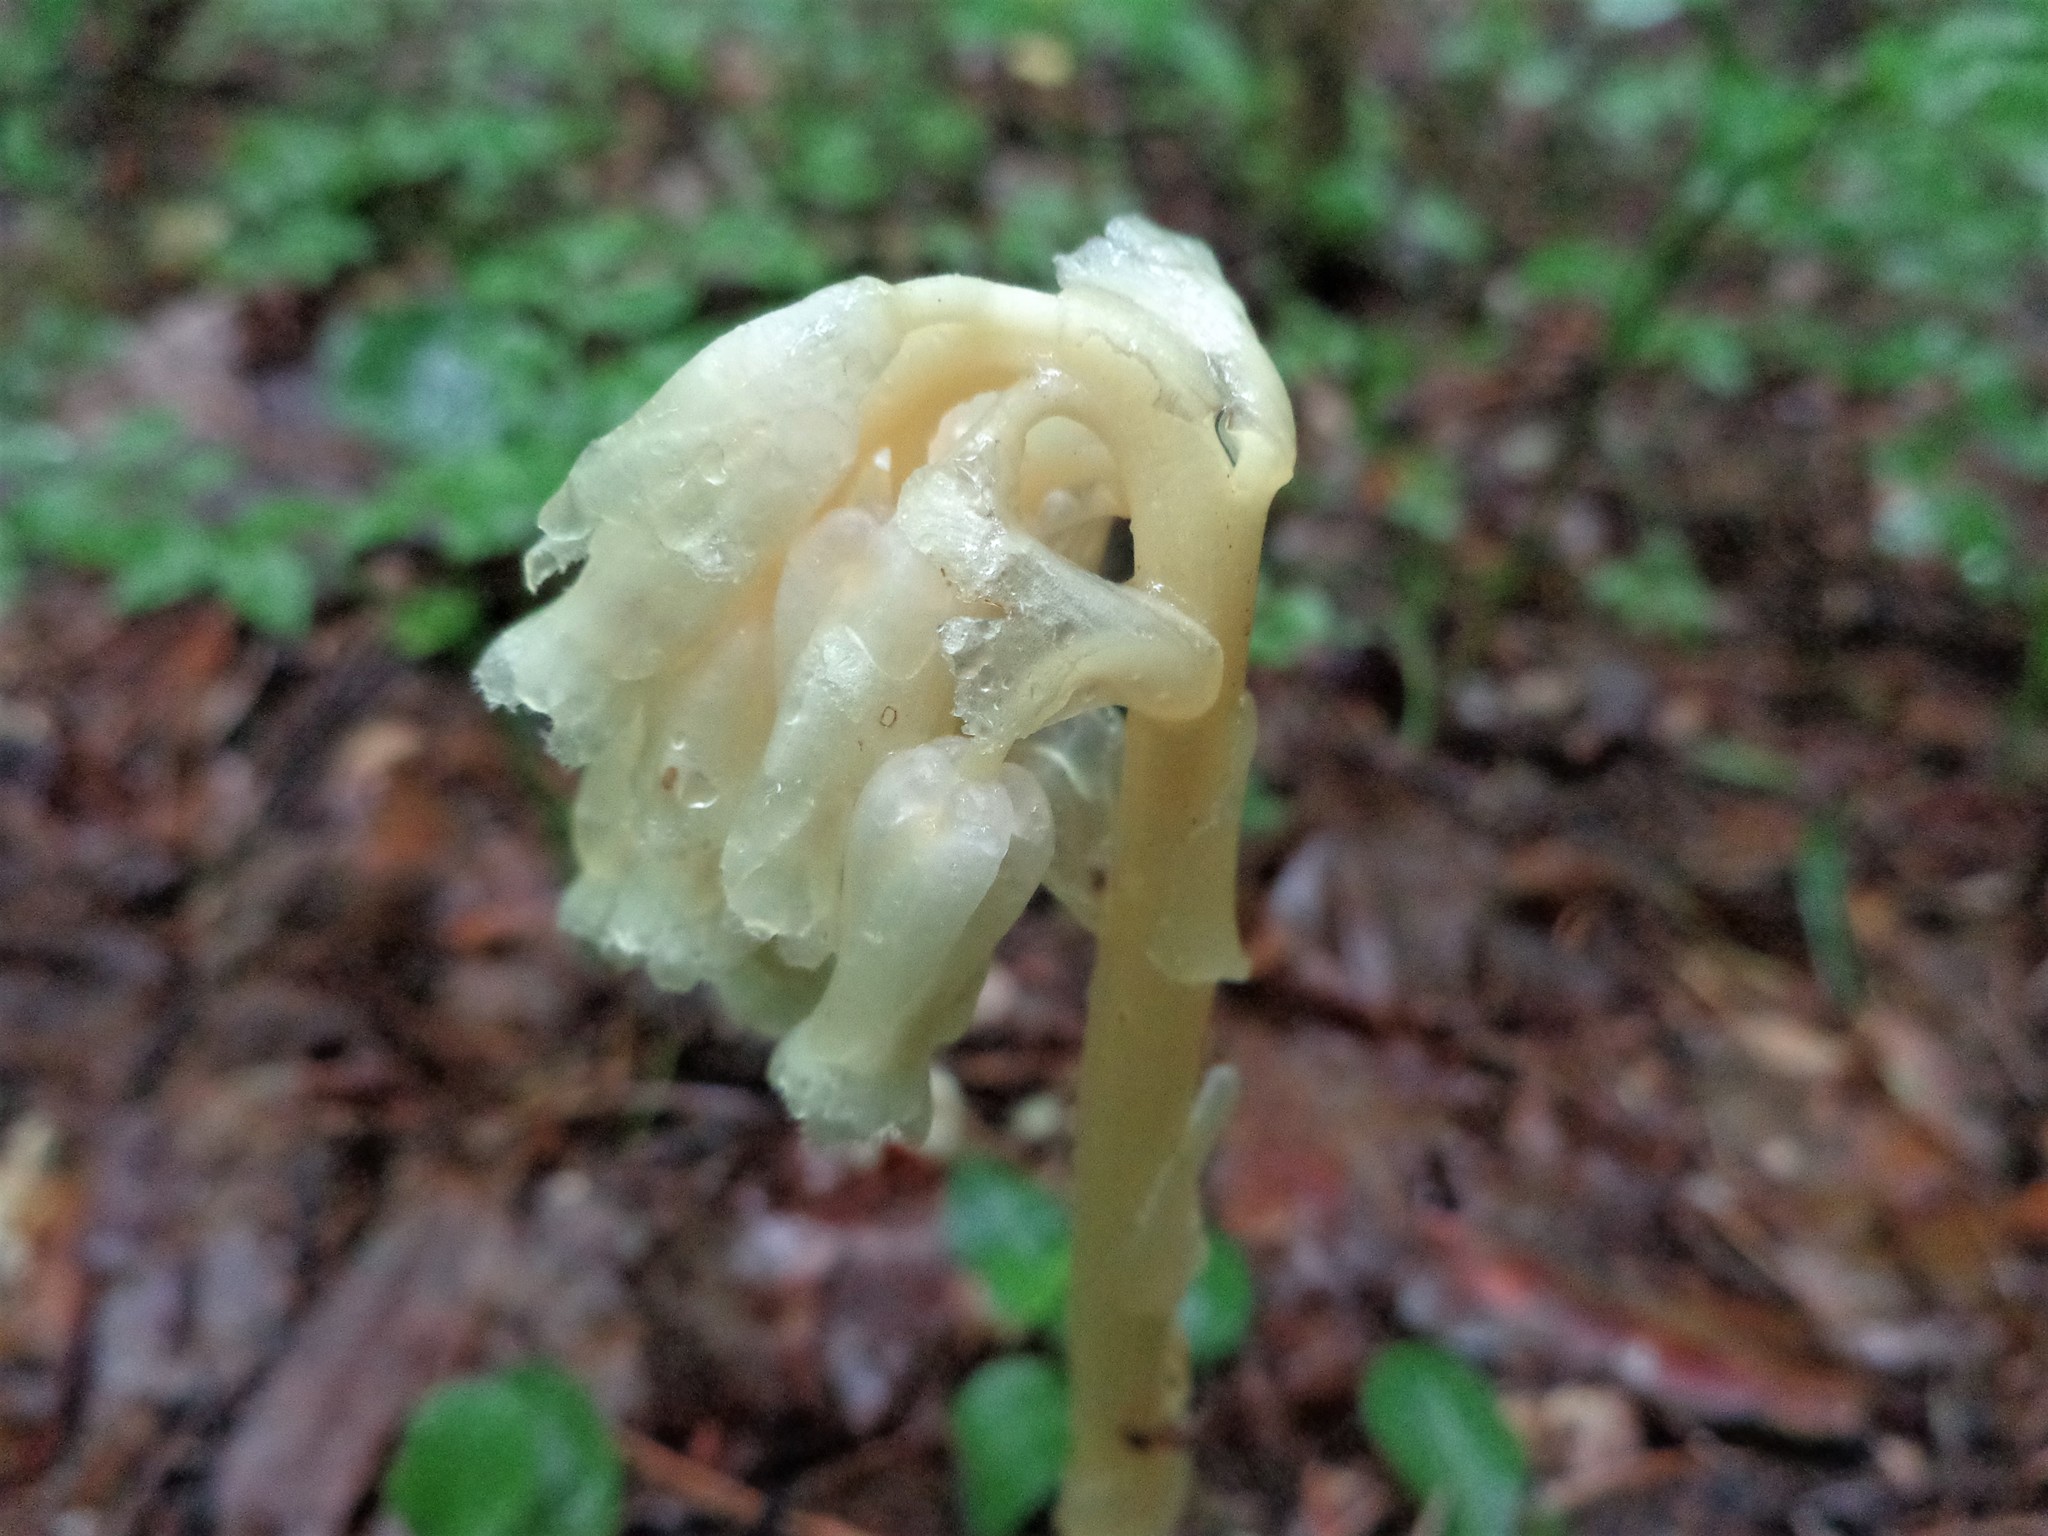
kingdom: Plantae
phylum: Tracheophyta
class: Magnoliopsida
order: Ericales
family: Ericaceae
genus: Hypopitys
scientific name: Hypopitys monotropa
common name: Yellow bird's-nest
